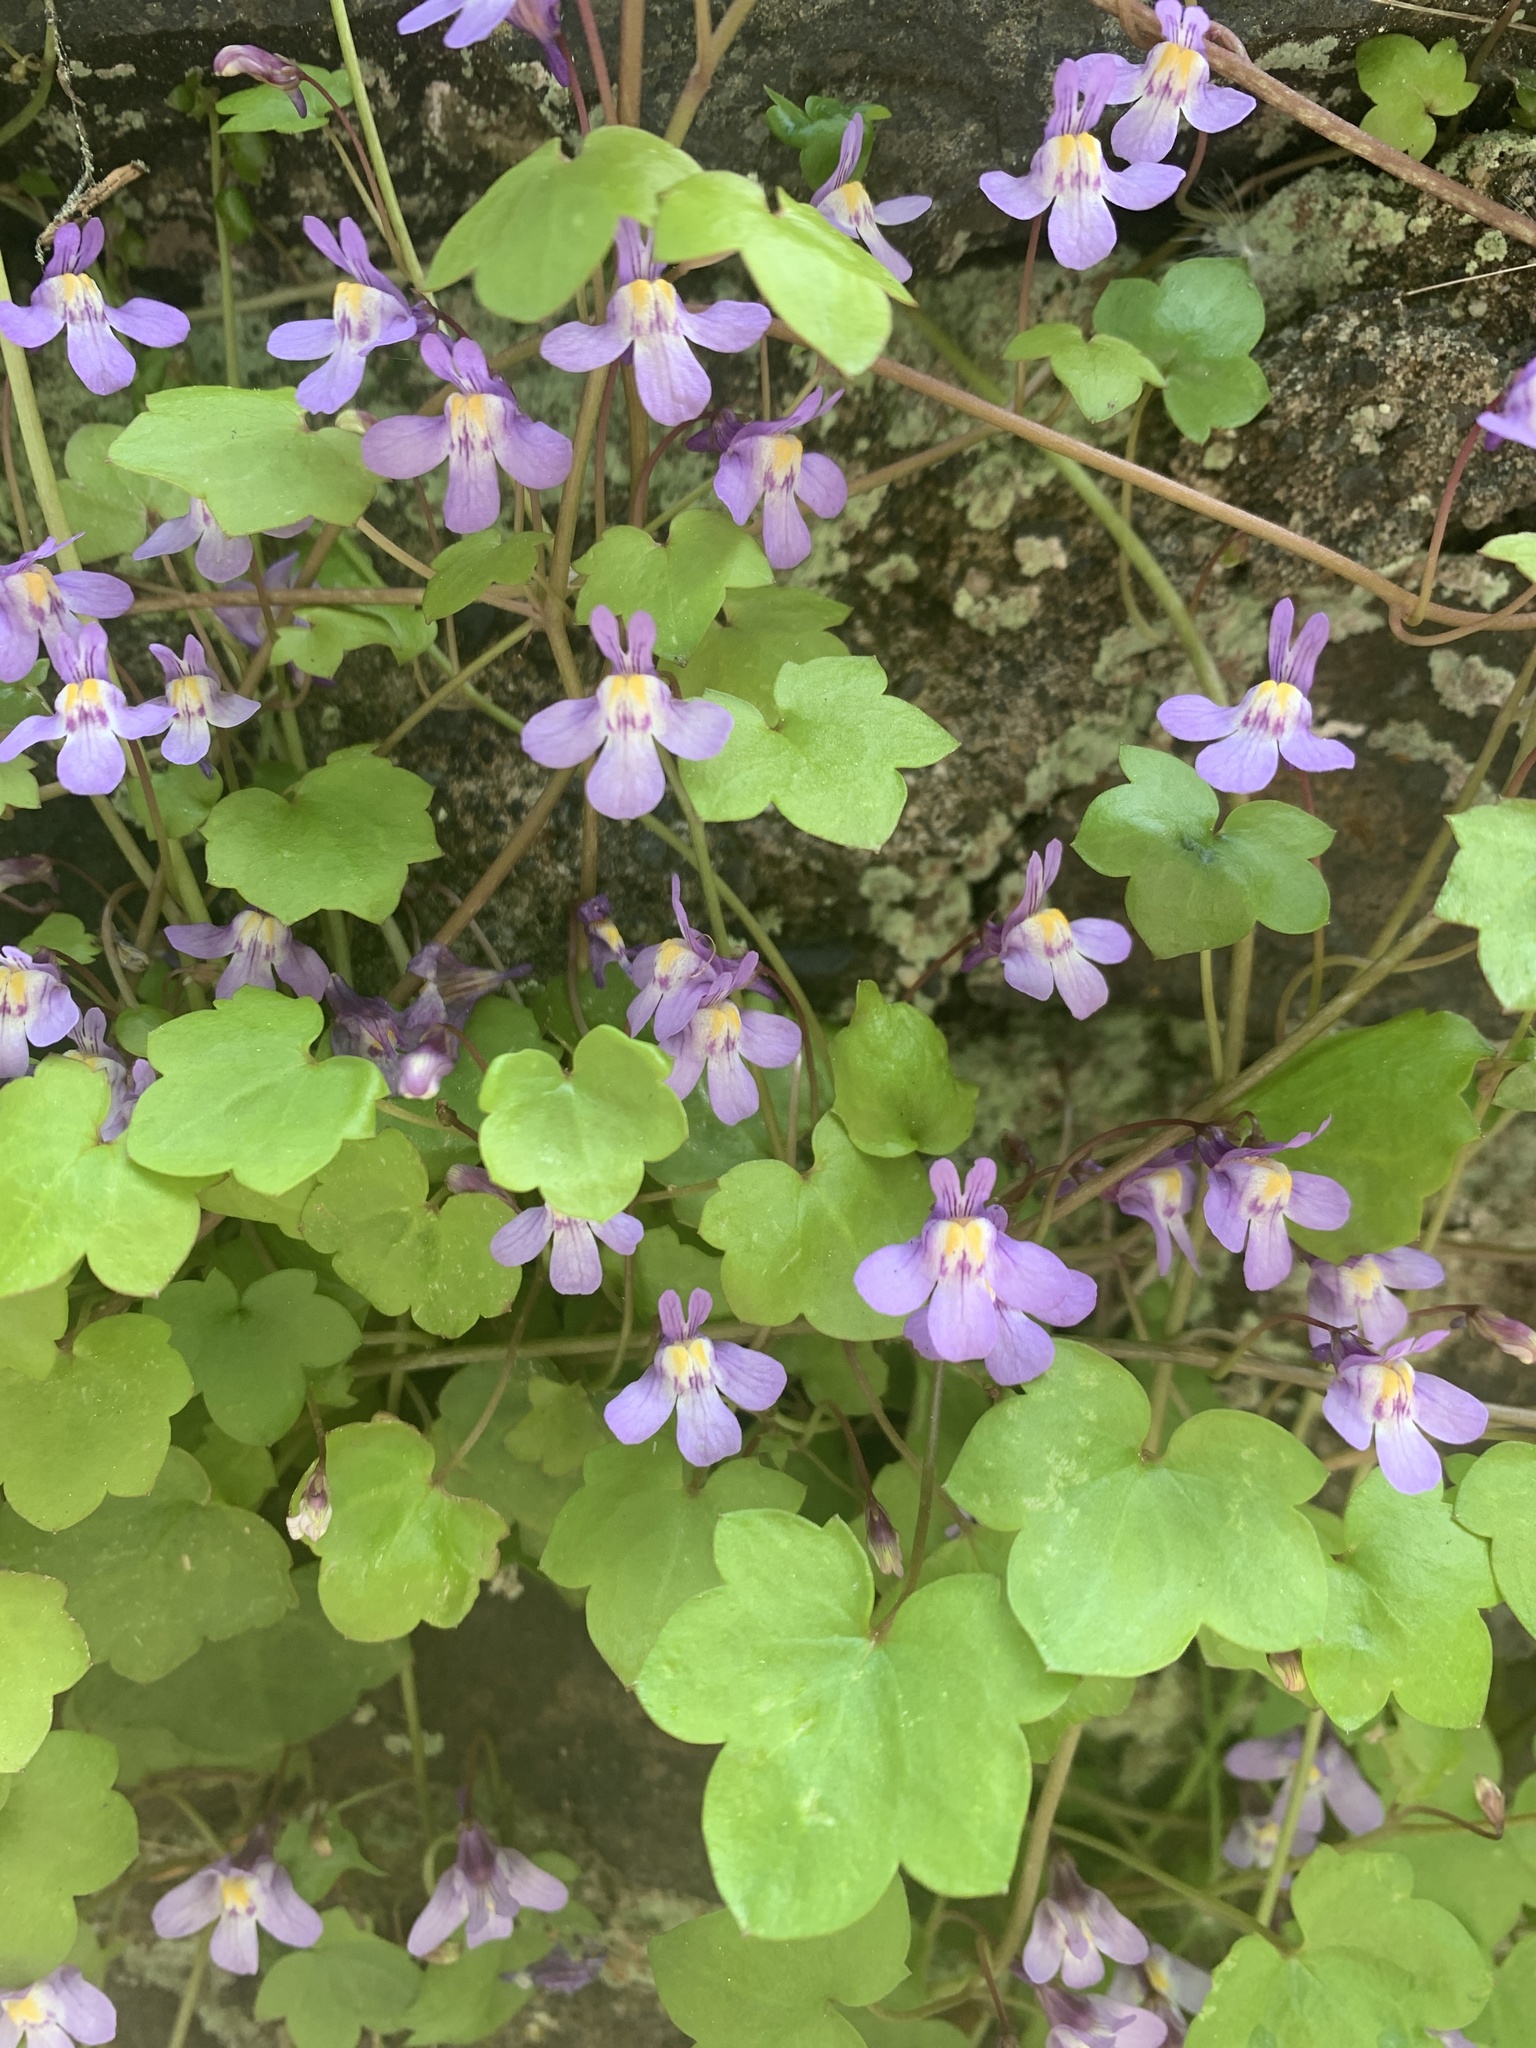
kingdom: Plantae
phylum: Tracheophyta
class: Magnoliopsida
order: Lamiales
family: Plantaginaceae
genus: Cymbalaria
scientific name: Cymbalaria muralis
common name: Ivy-leaved toadflax
